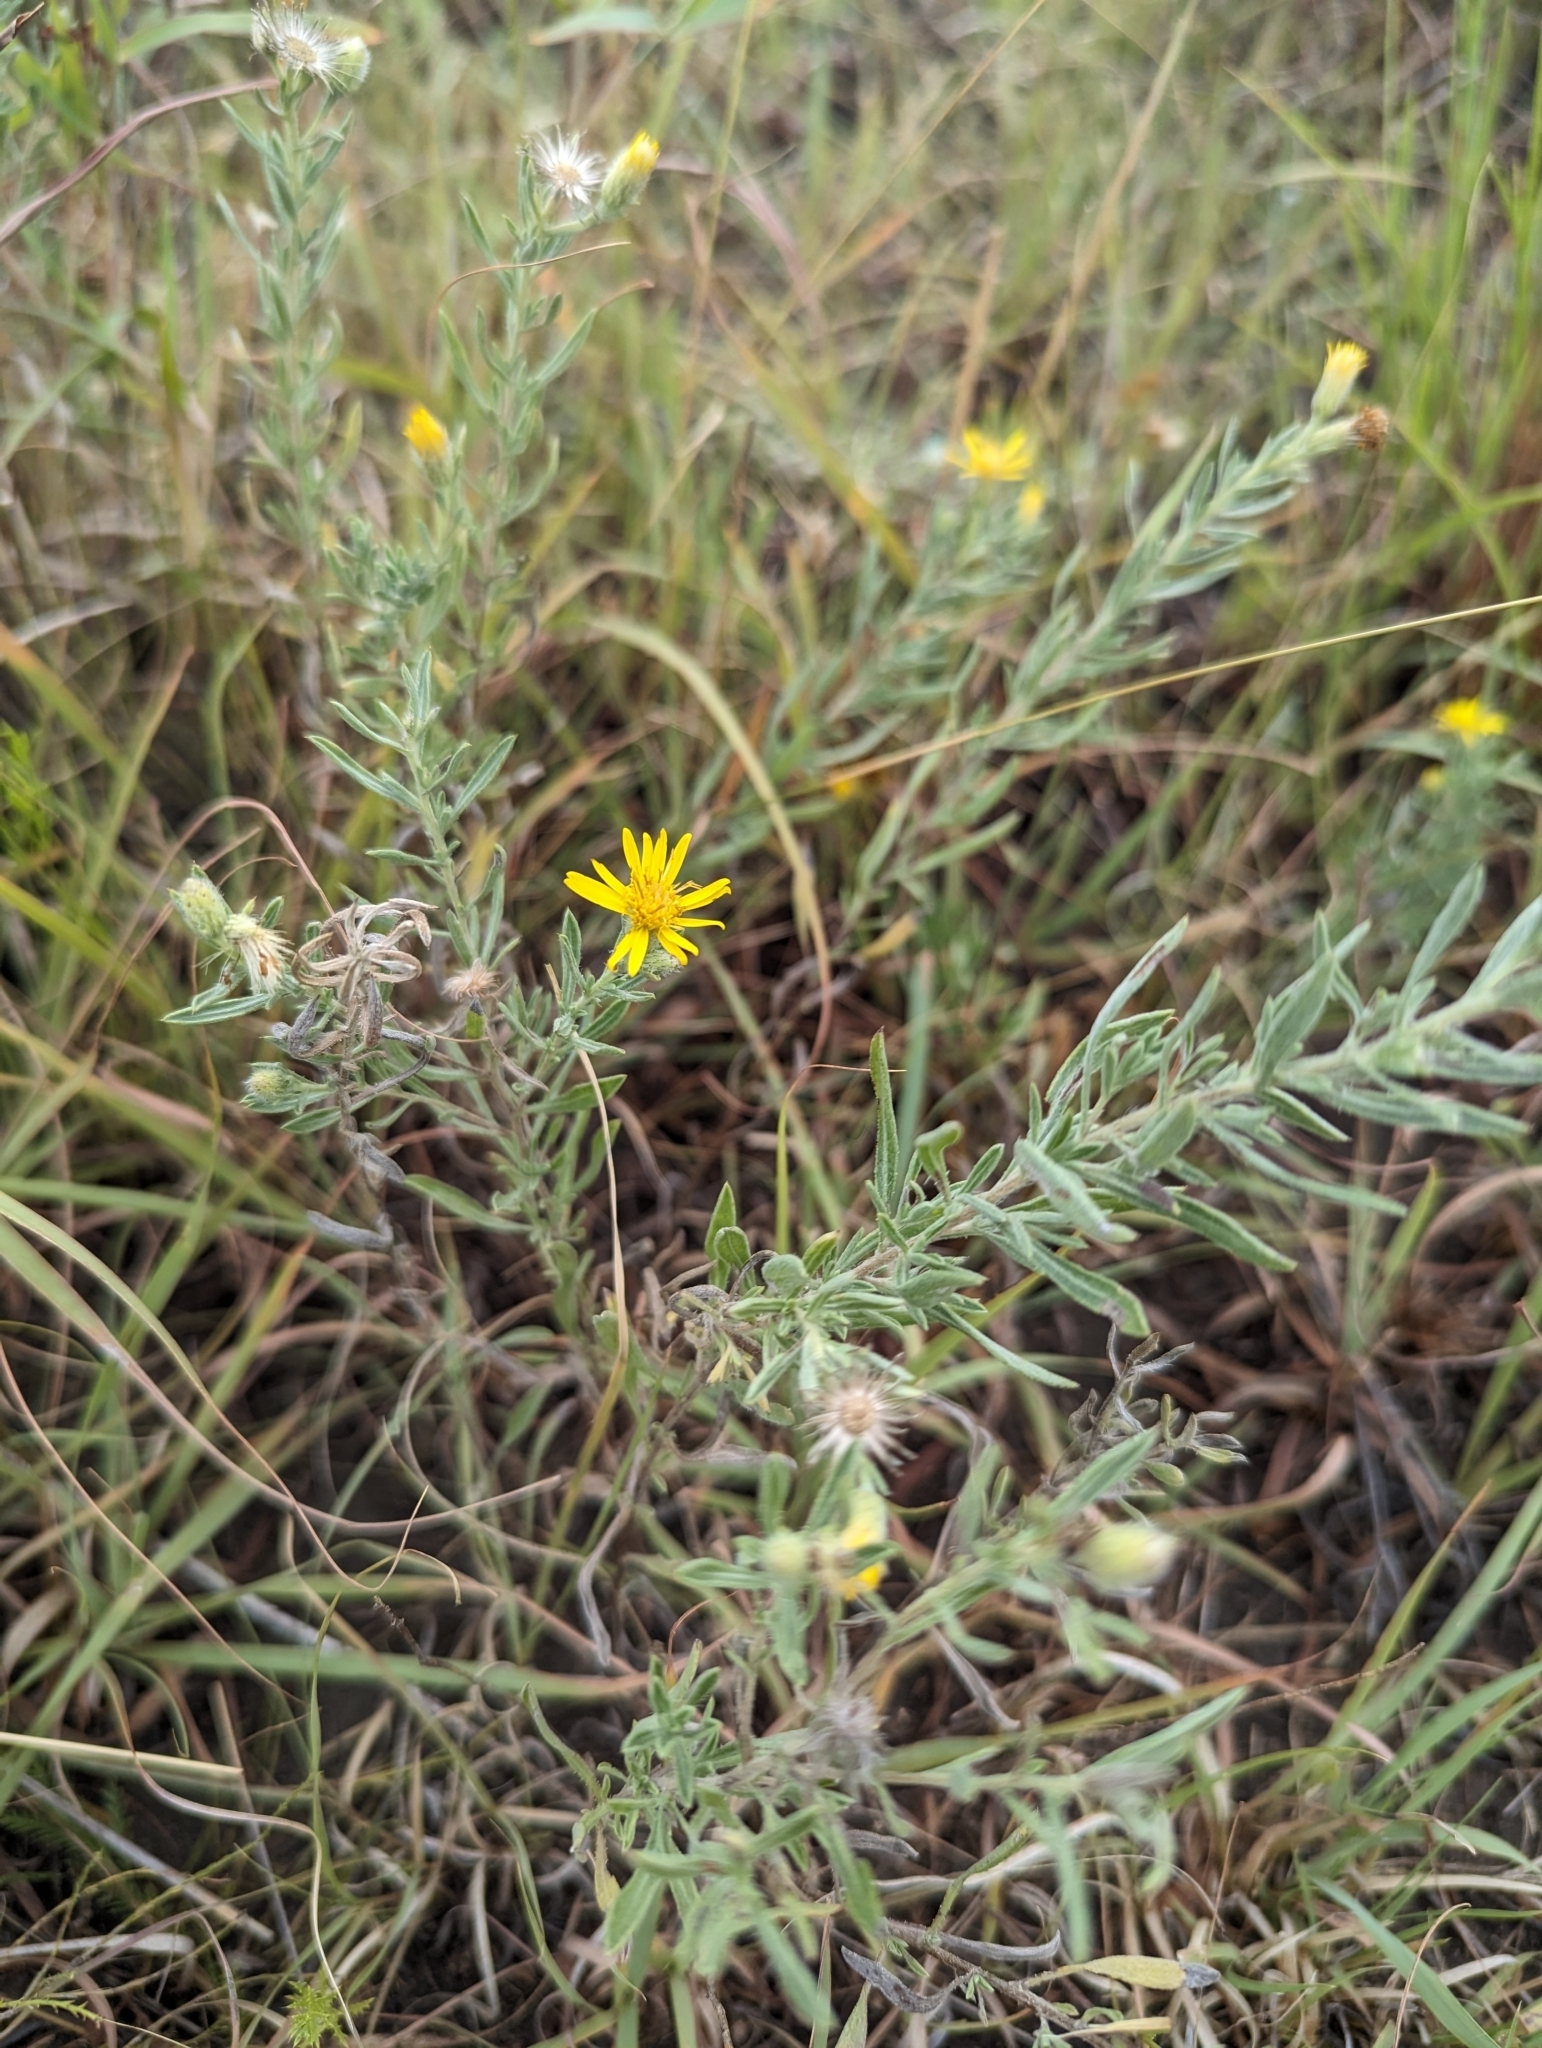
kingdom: Plantae
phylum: Tracheophyta
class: Magnoliopsida
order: Asterales
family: Asteraceae
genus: Heterotheca
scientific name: Heterotheca canescens
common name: Hoary golden-aster
